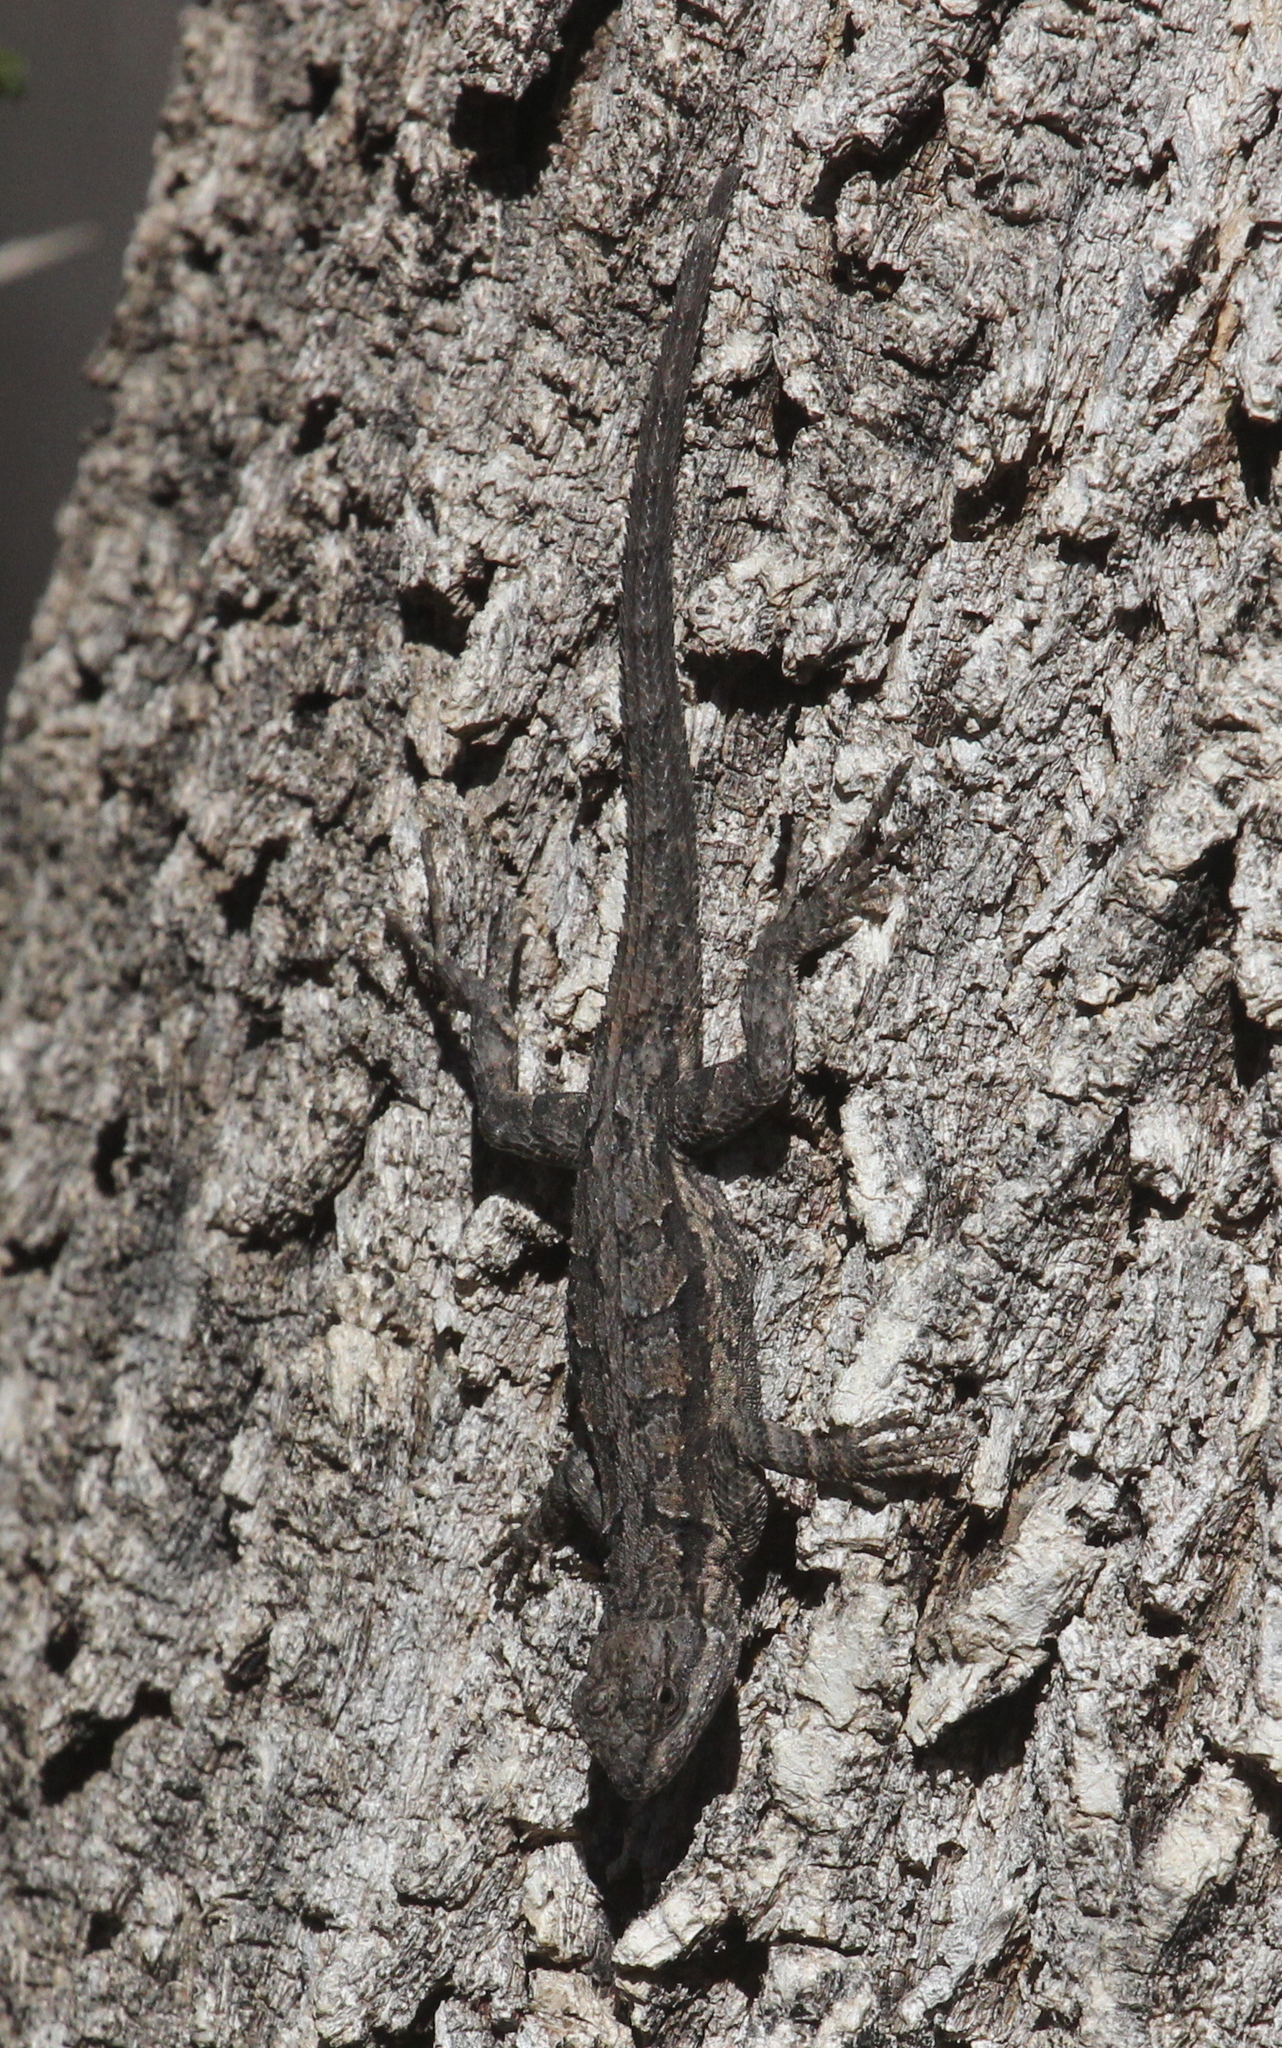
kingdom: Animalia
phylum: Chordata
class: Squamata
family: Phrynosomatidae
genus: Urosaurus
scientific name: Urosaurus ornatus
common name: Ornate tree lizard
